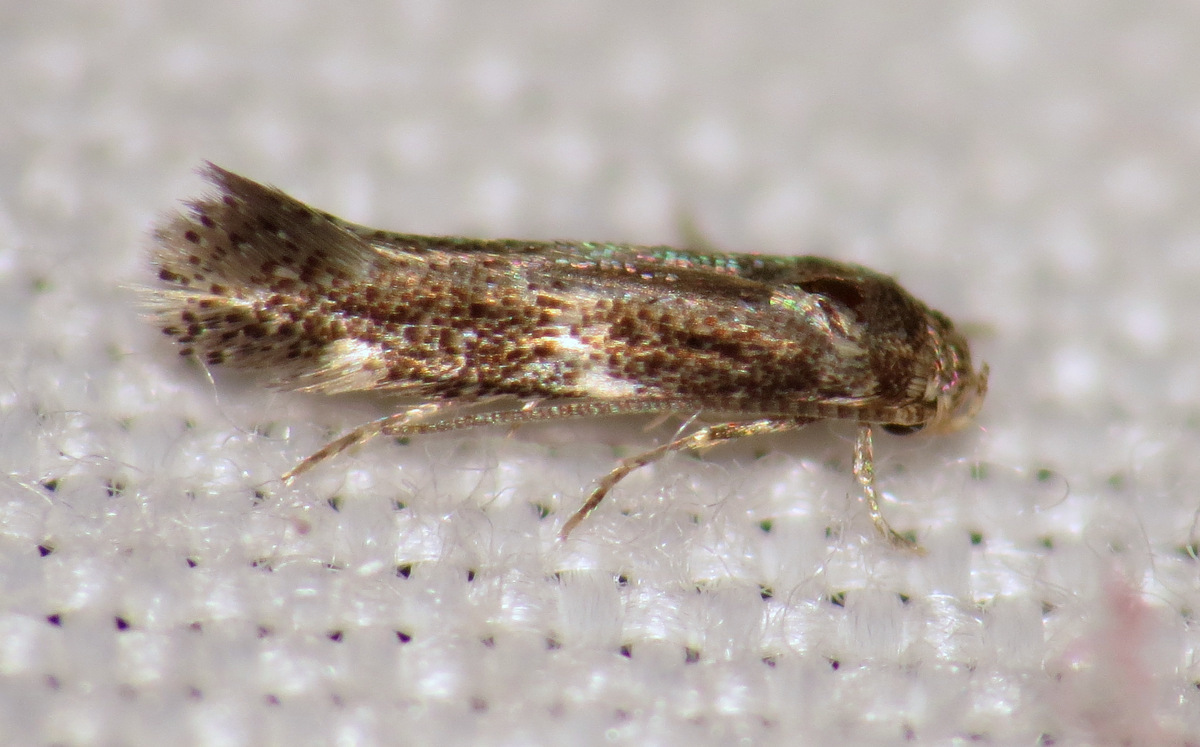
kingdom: Animalia
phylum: Arthropoda
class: Insecta
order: Lepidoptera
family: Elachistidae
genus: Elachista
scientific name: Elachista illectella
